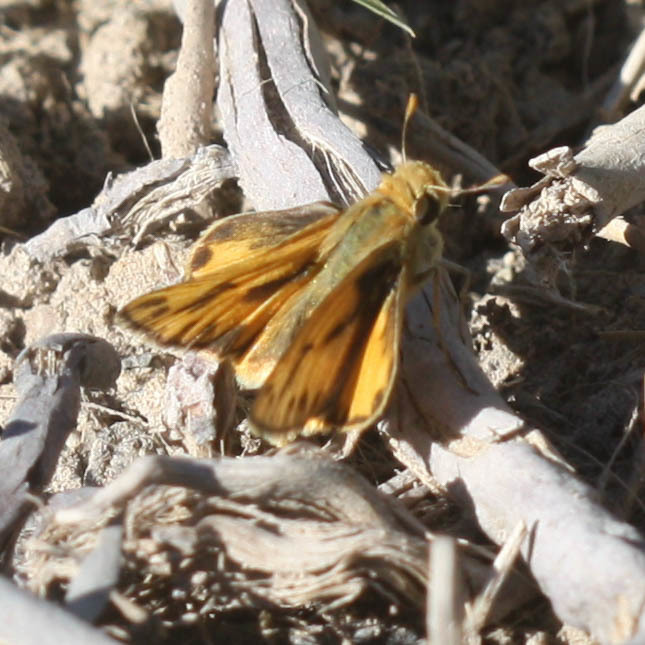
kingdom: Animalia
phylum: Arthropoda
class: Insecta
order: Lepidoptera
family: Hesperiidae
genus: Hylephila
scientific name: Hylephila phyleus
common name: Fiery skipper
